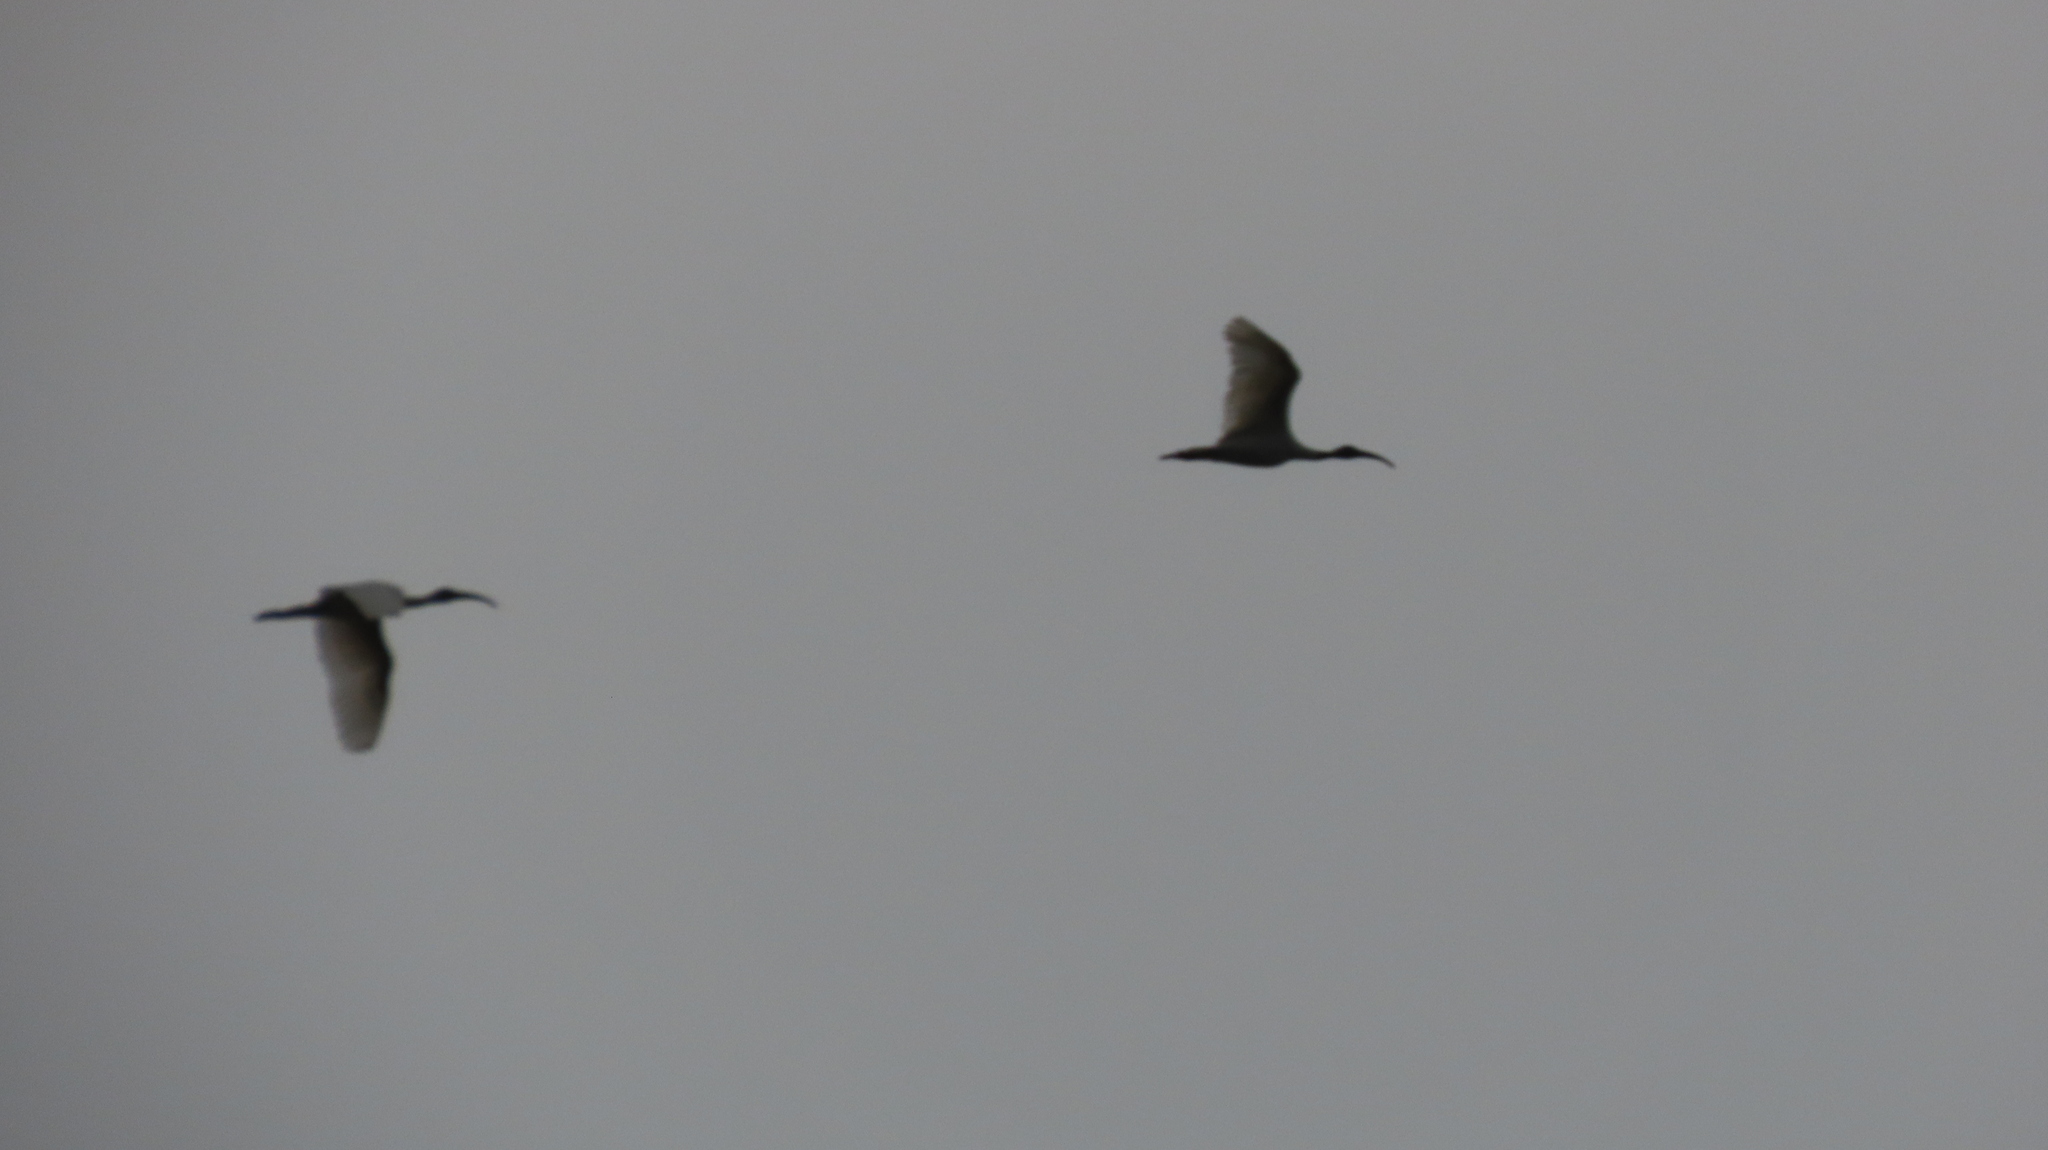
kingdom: Animalia
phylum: Chordata
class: Aves
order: Pelecaniformes
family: Threskiornithidae
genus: Threskiornis
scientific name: Threskiornis melanocephalus
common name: Black-headed ibis
